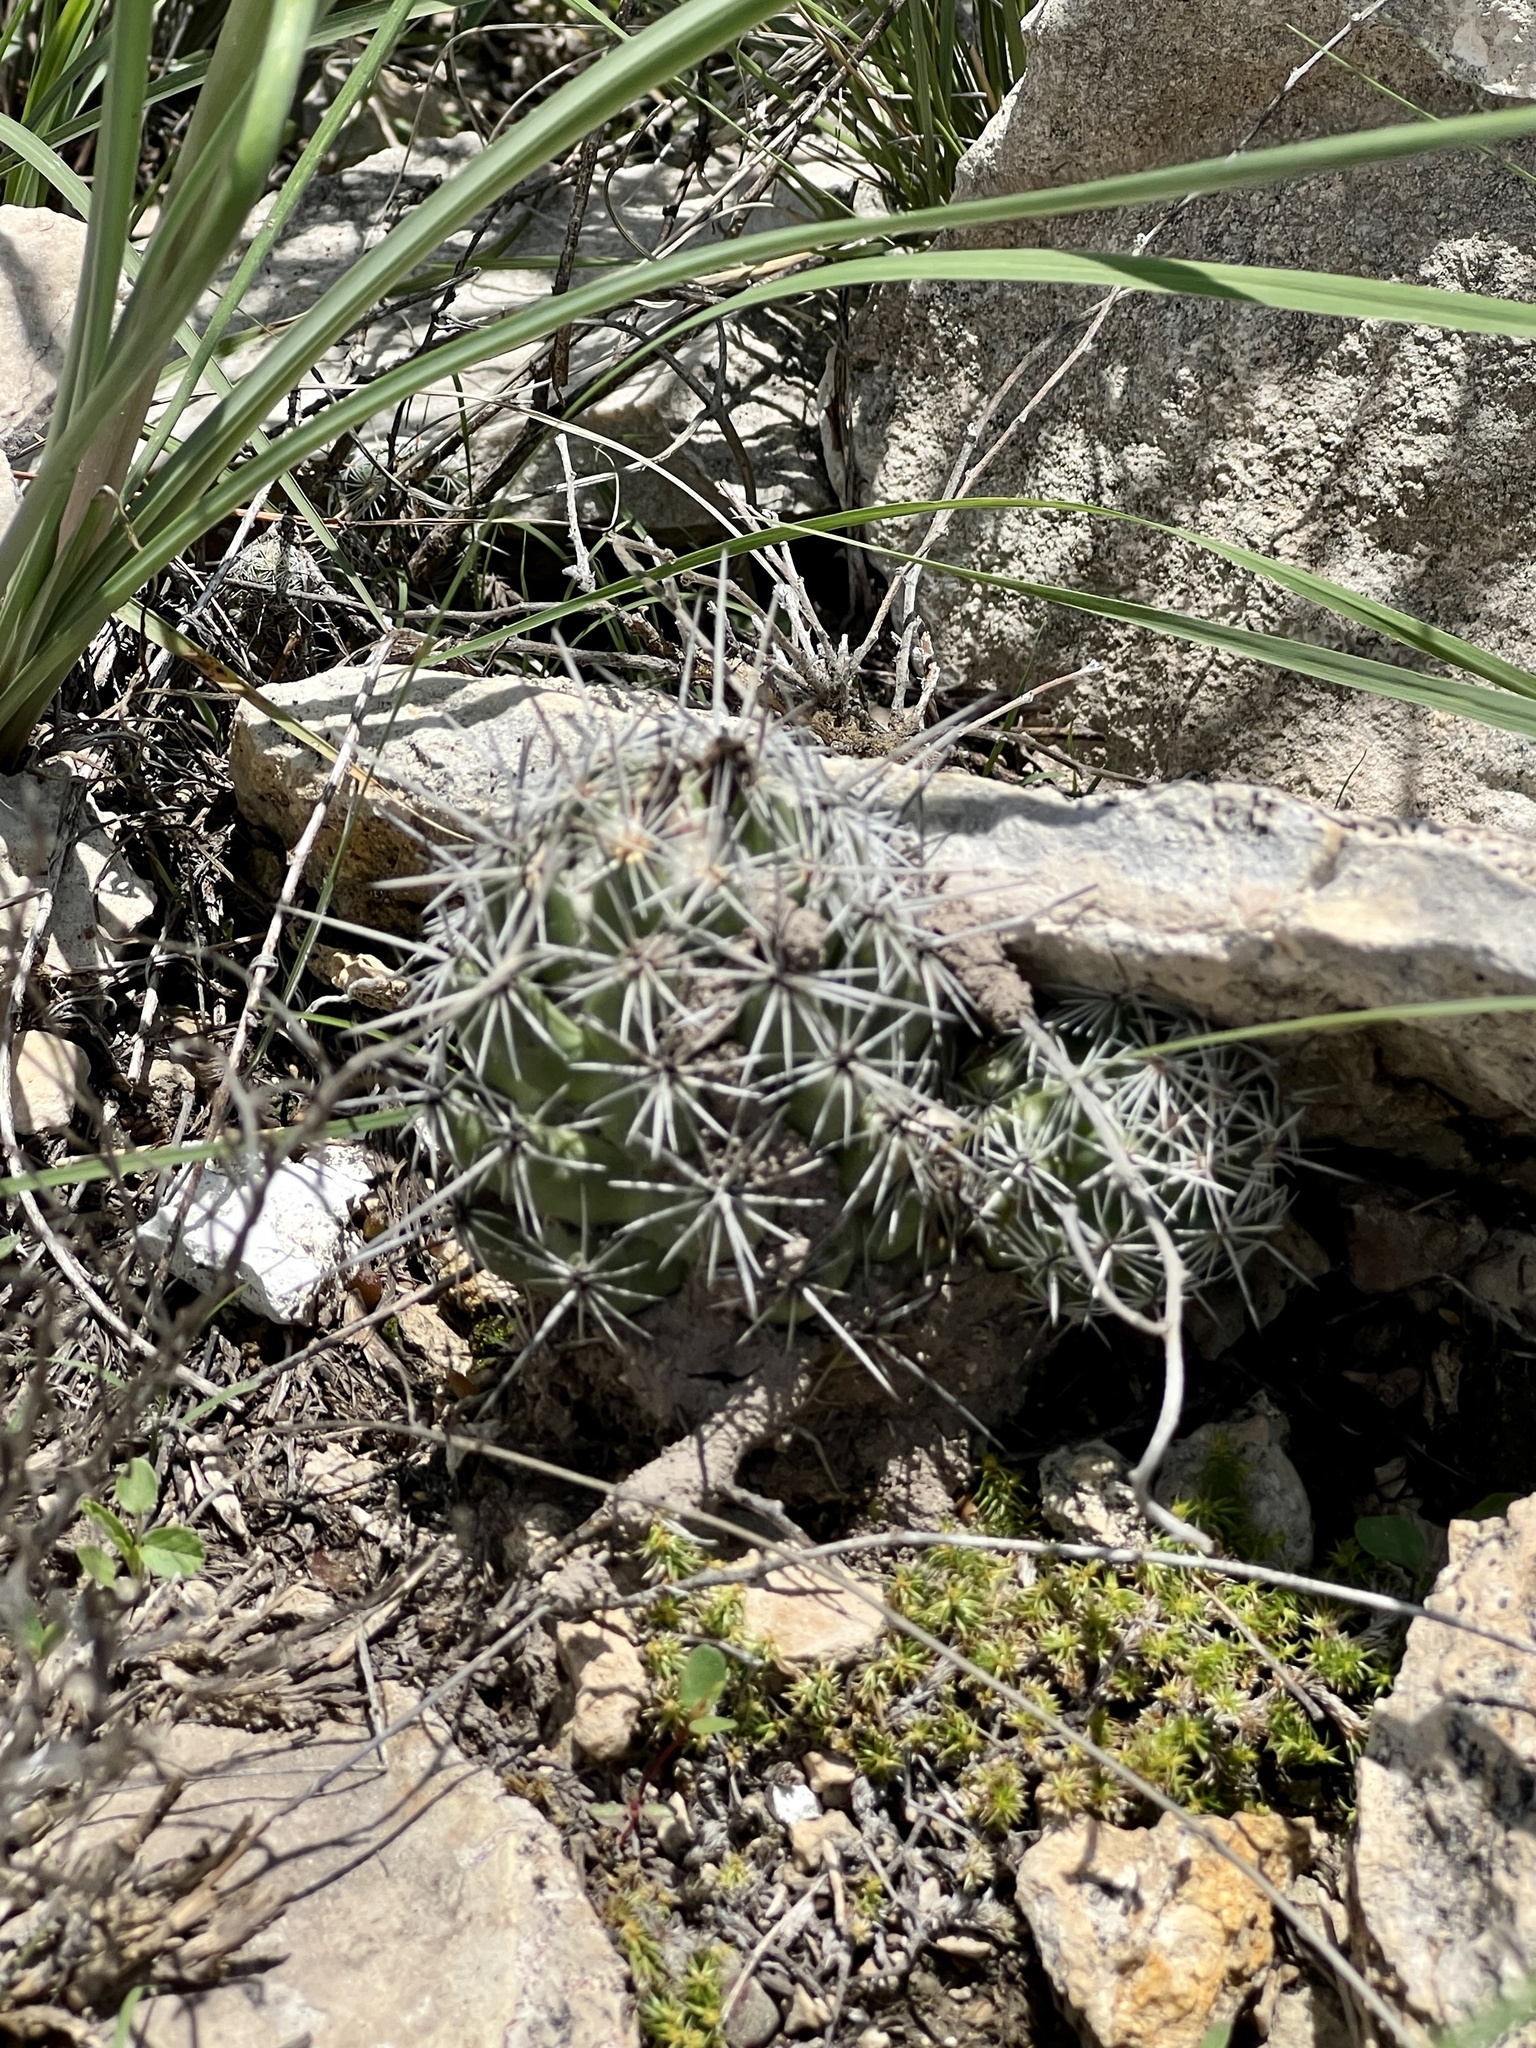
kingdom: Plantae
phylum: Tracheophyta
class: Magnoliopsida
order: Caryophyllales
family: Cactaceae
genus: Cochemiea
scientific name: Cochemiea conoidea
